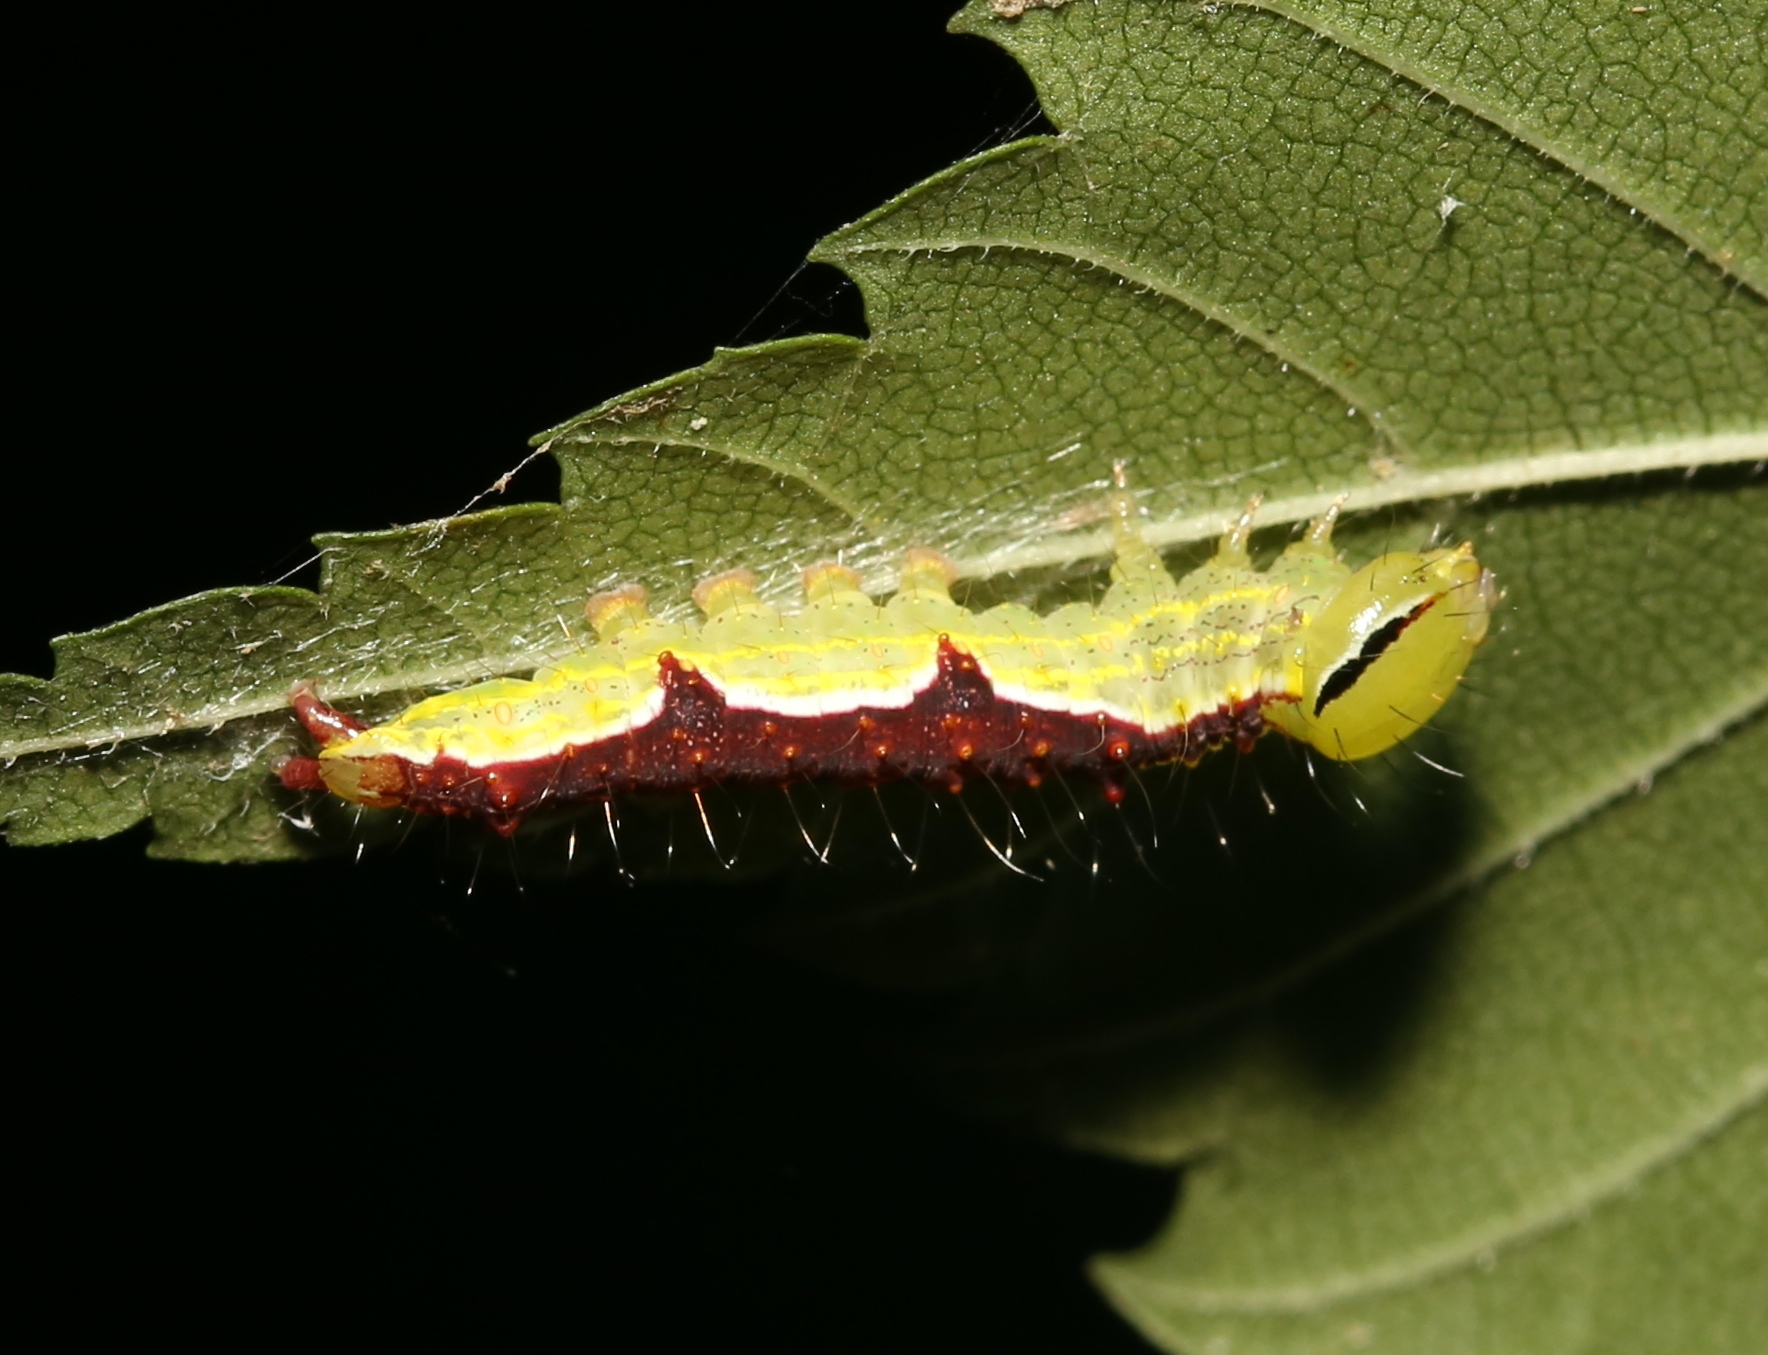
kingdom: Animalia
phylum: Arthropoda
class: Insecta
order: Lepidoptera
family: Notodontidae
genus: Lochmaeus
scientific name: Lochmaeus bilineata
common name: Double-lined prominent
